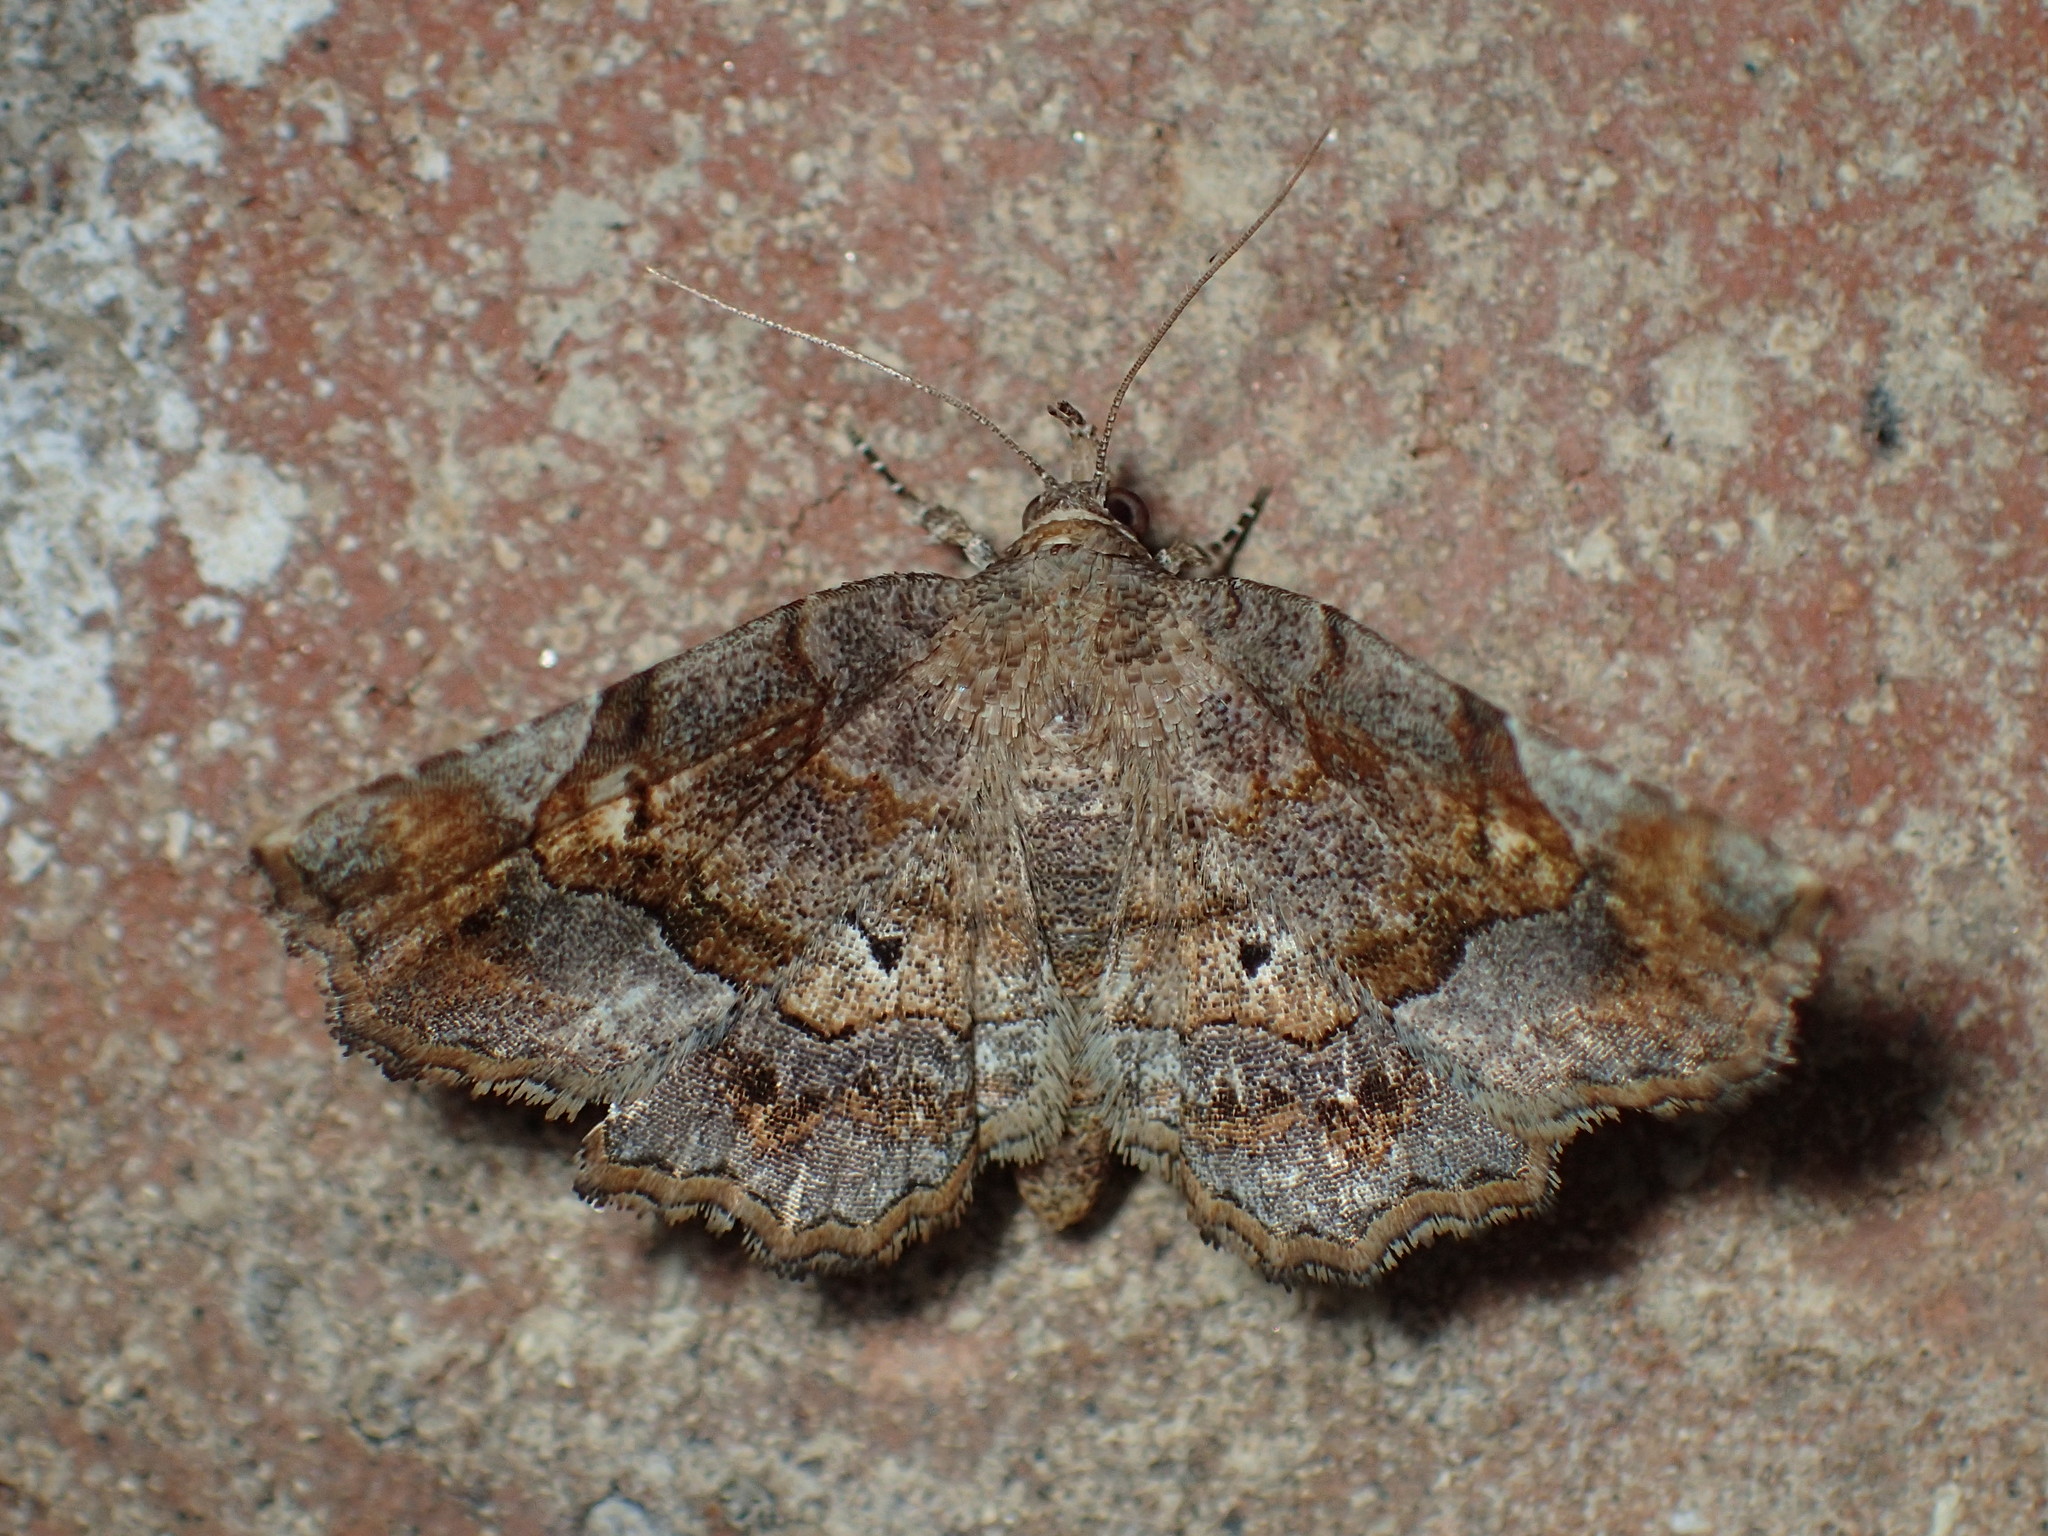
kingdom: Animalia
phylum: Arthropoda
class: Insecta
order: Lepidoptera
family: Erebidae
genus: Pangrapta
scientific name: Pangrapta decoralis
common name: Decorated owlet
